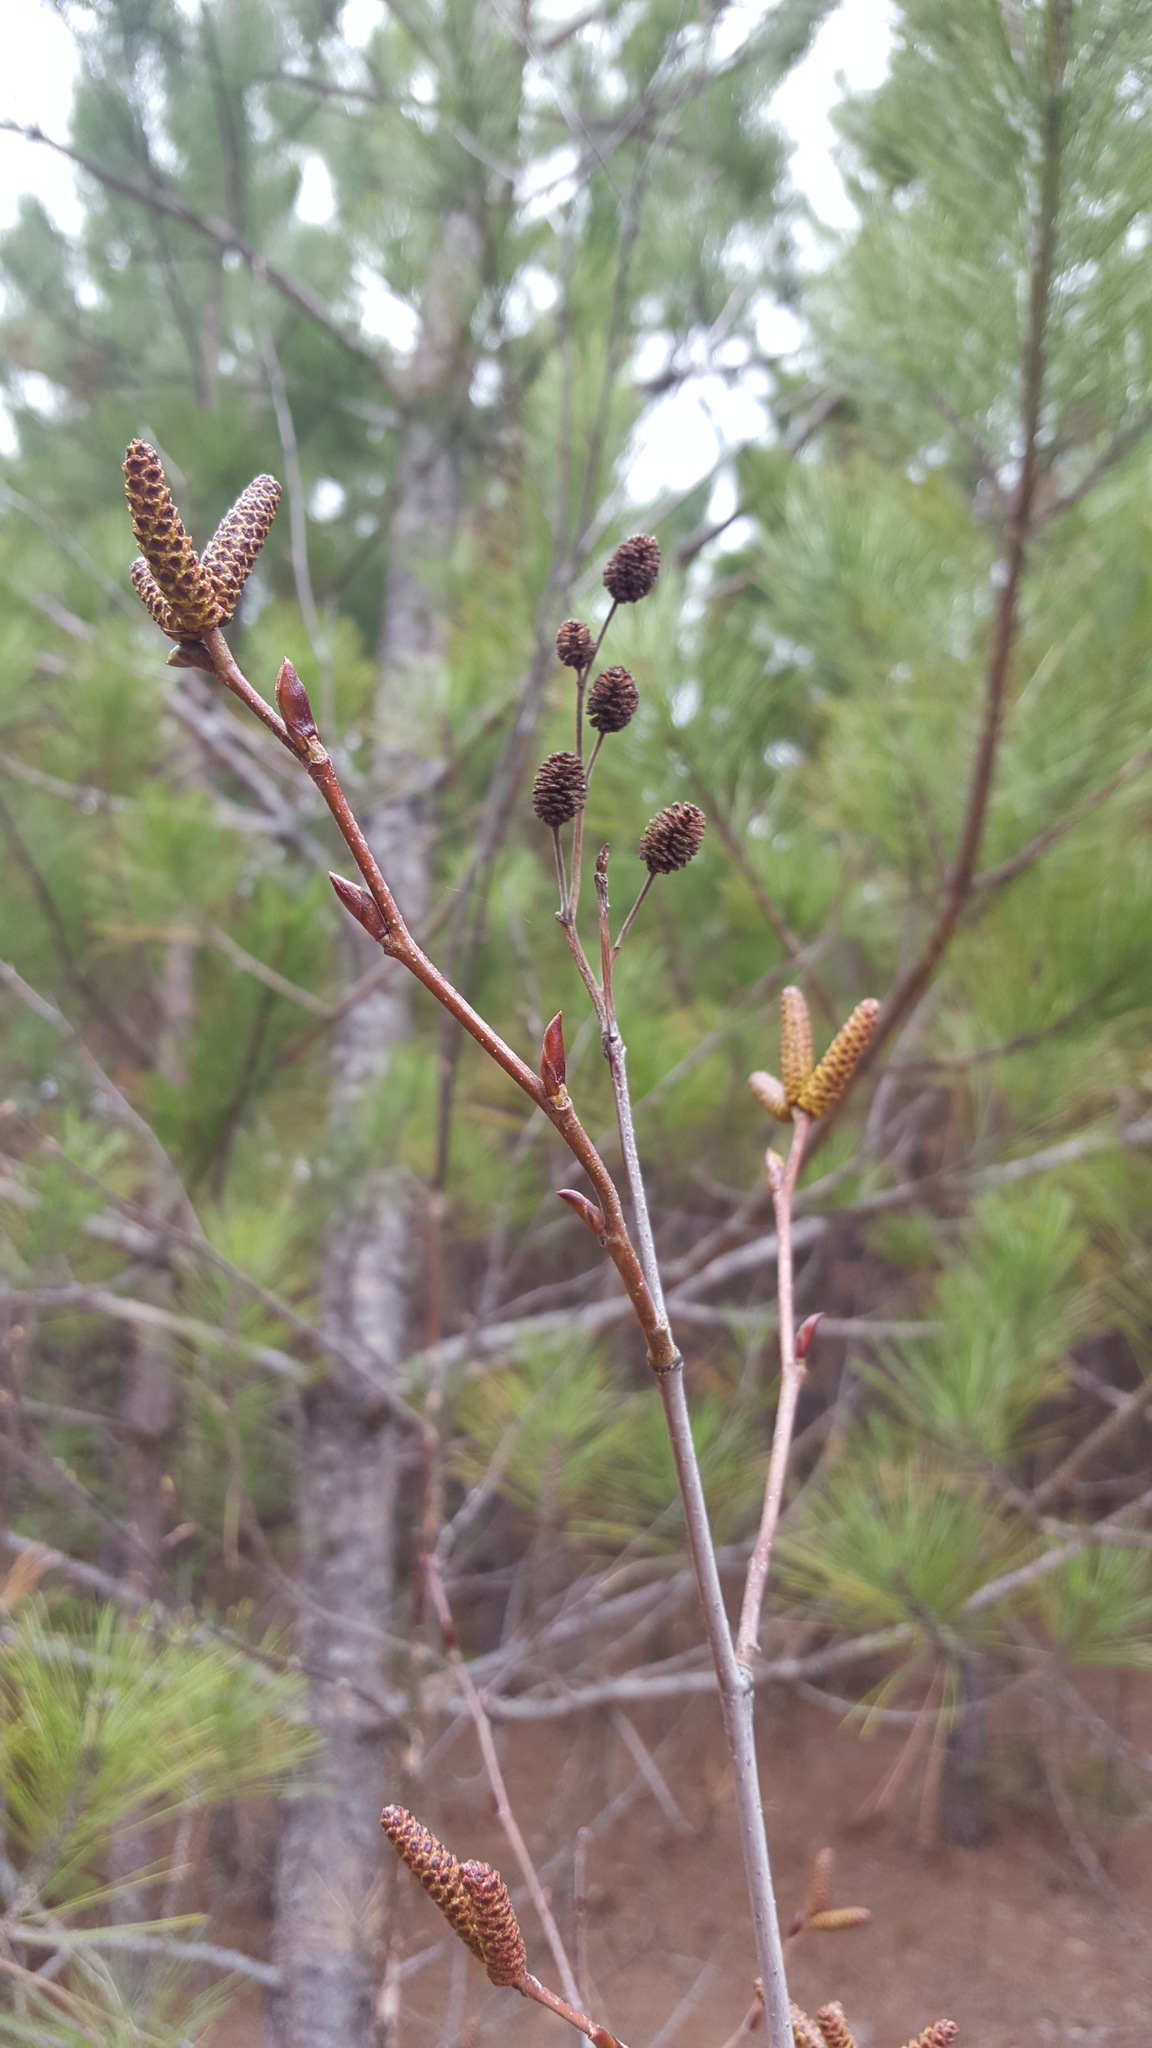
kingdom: Plantae
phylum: Tracheophyta
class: Magnoliopsida
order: Fagales
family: Betulaceae
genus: Alnus
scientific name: Alnus alnobetula
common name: Green alder
